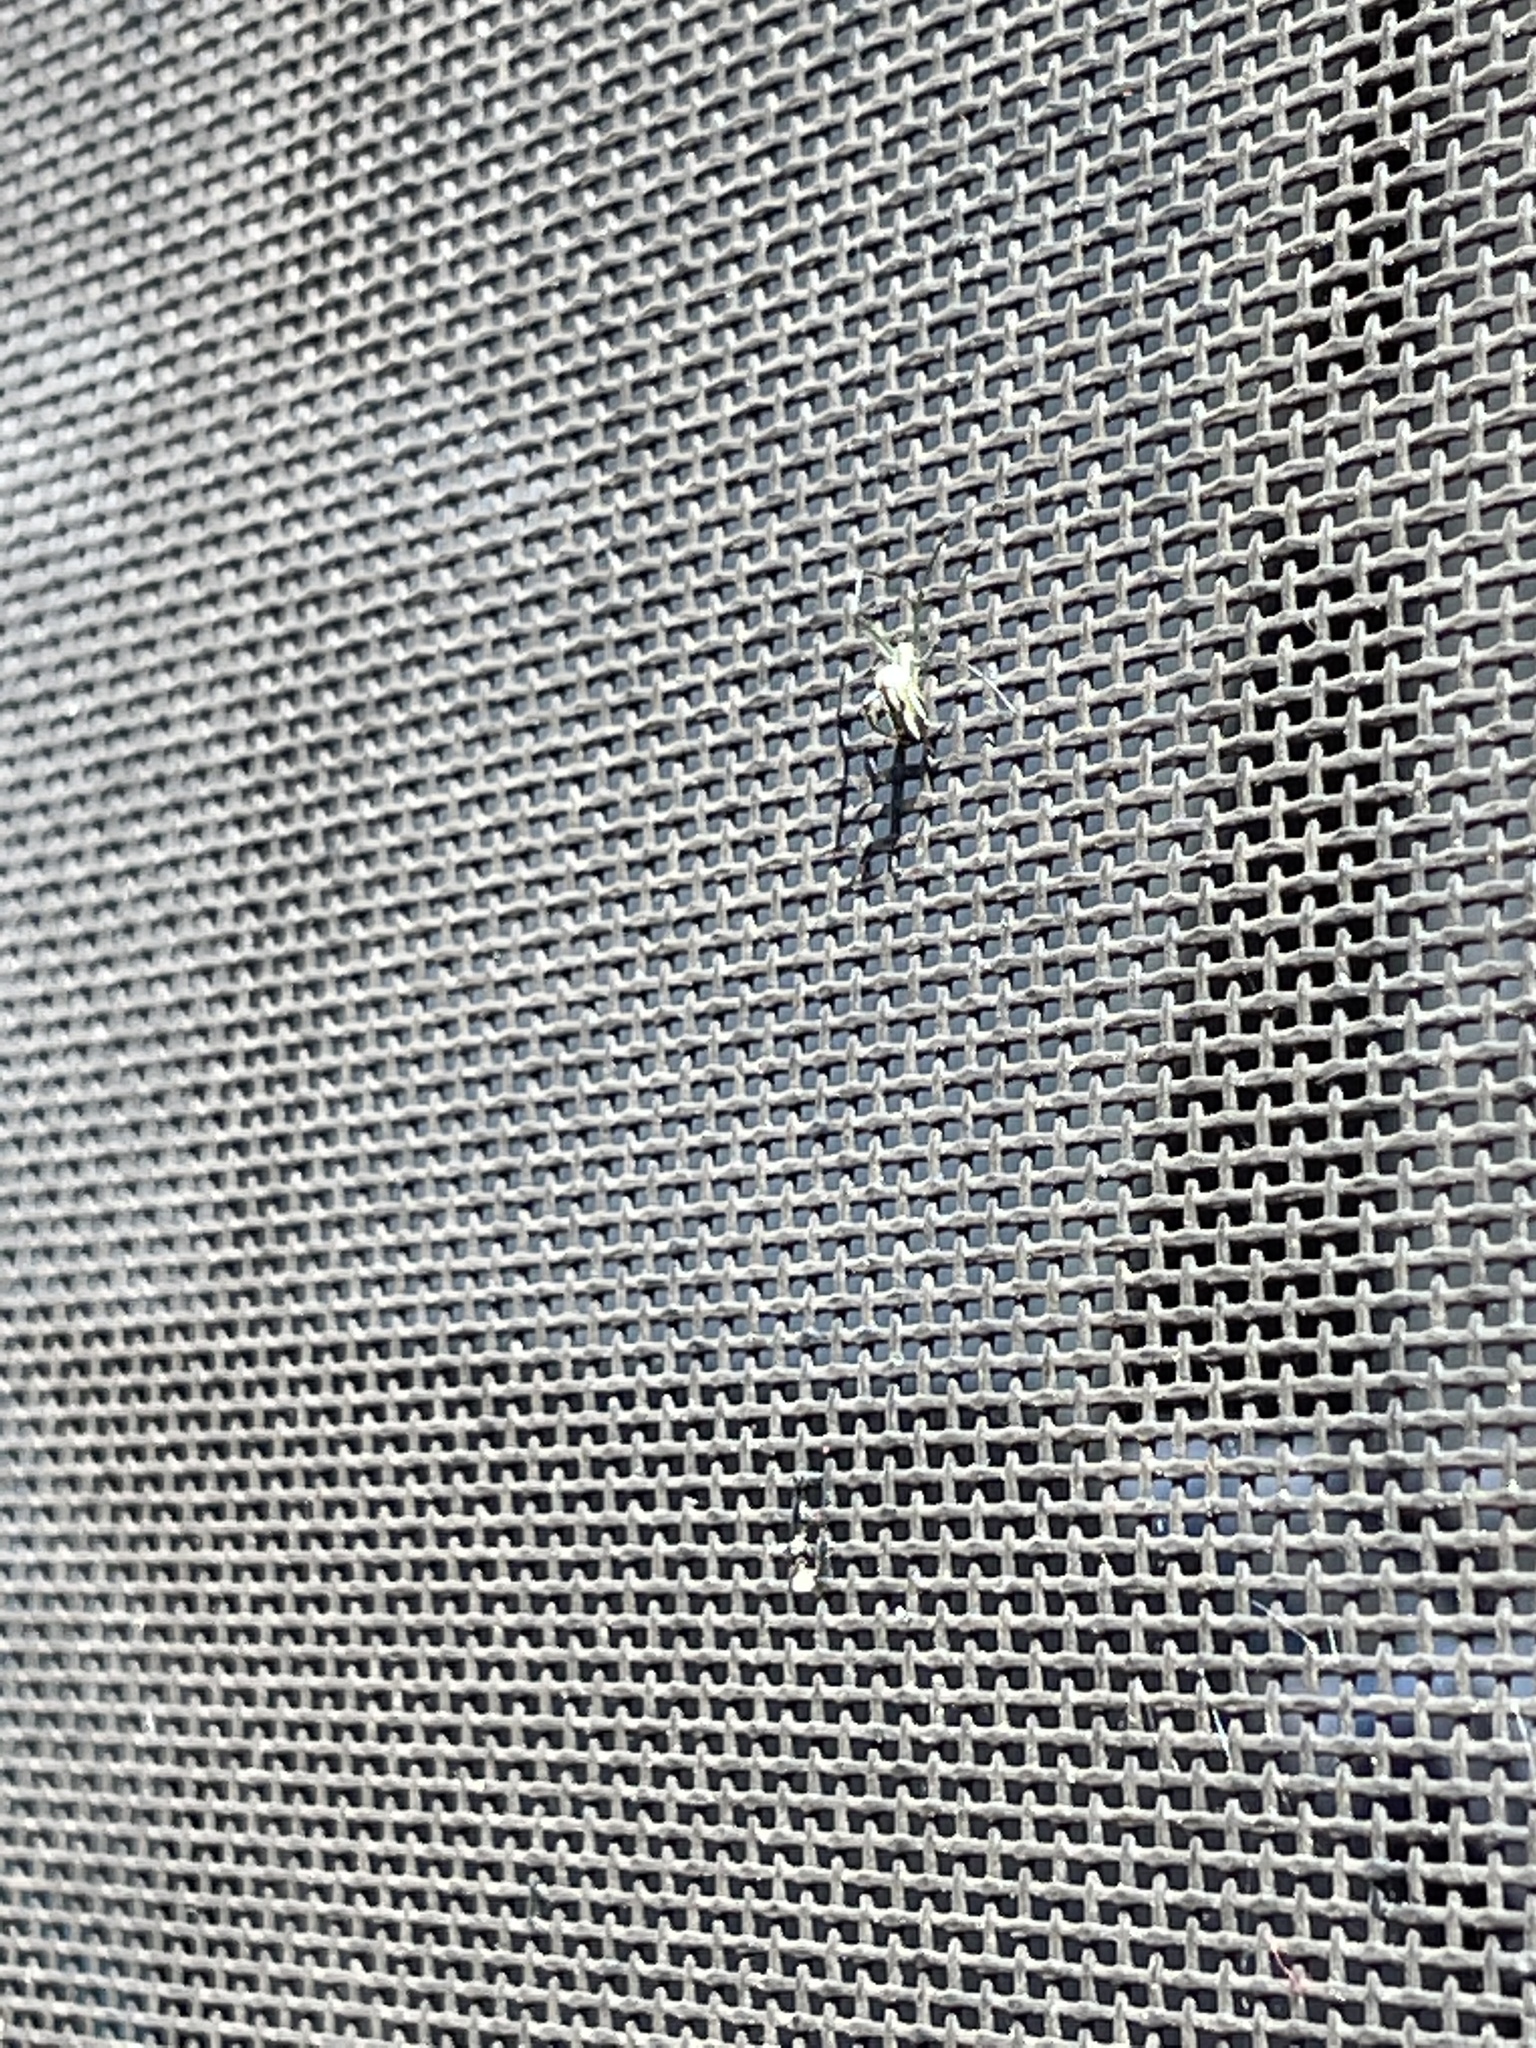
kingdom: Animalia
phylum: Arthropoda
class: Arachnida
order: Araneae
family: Tetragnathidae
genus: Leucauge
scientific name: Leucauge argyra
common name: Longjawed orb weavers
